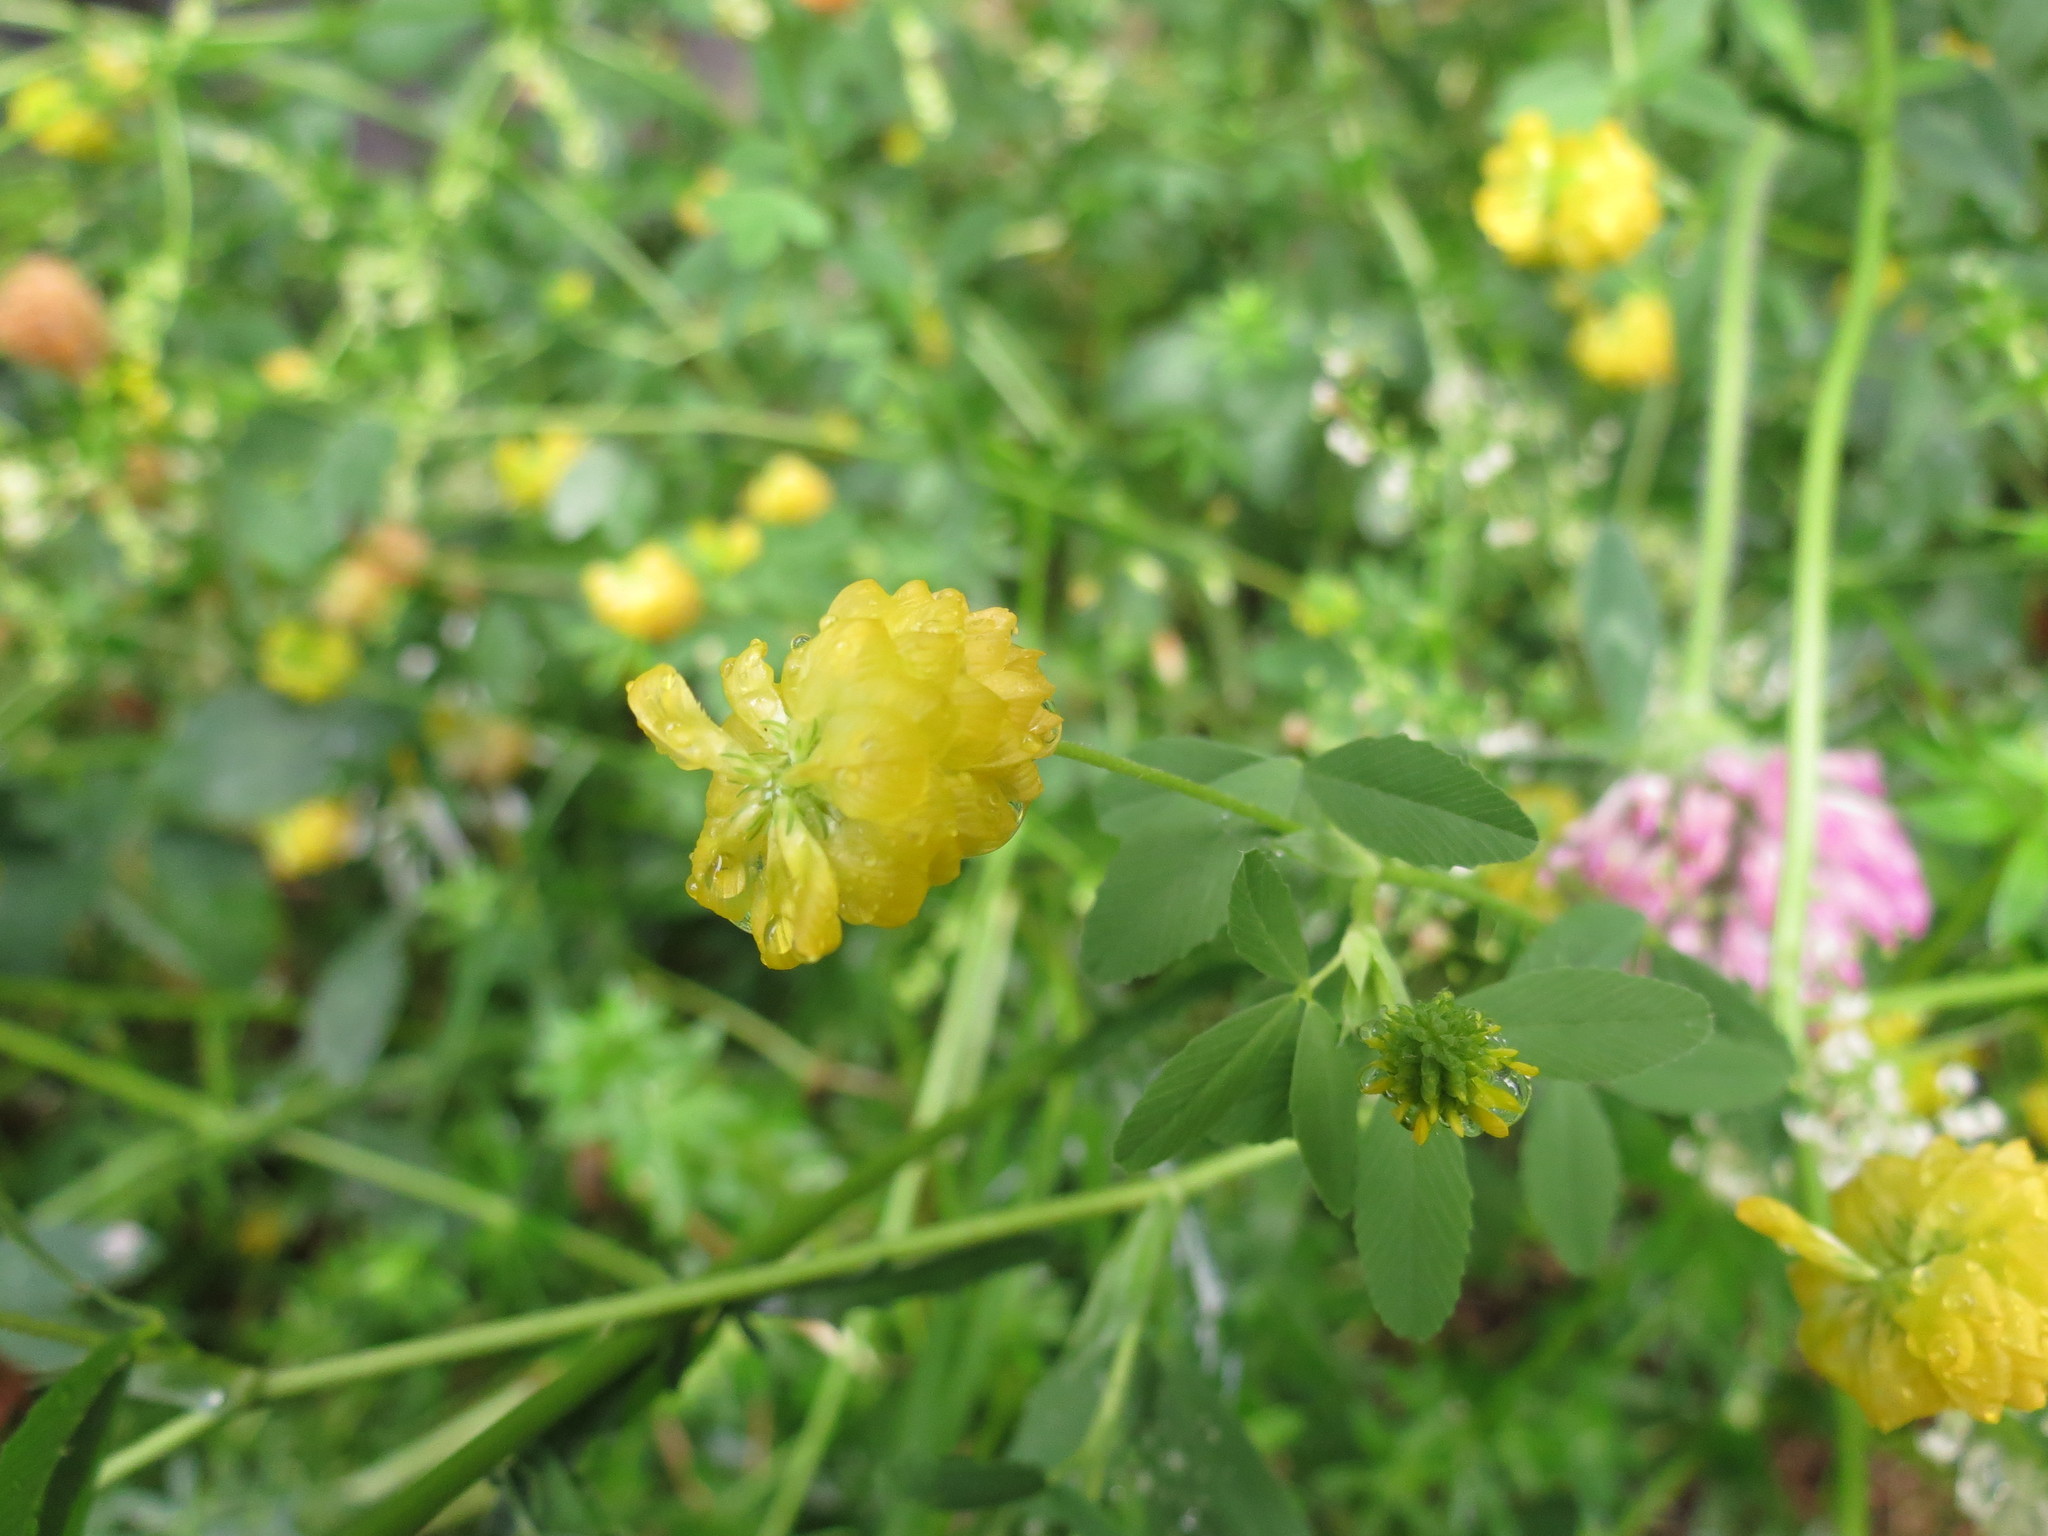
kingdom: Plantae
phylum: Tracheophyta
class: Magnoliopsida
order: Fabales
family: Fabaceae
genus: Trifolium
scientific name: Trifolium campestre
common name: Field clover
